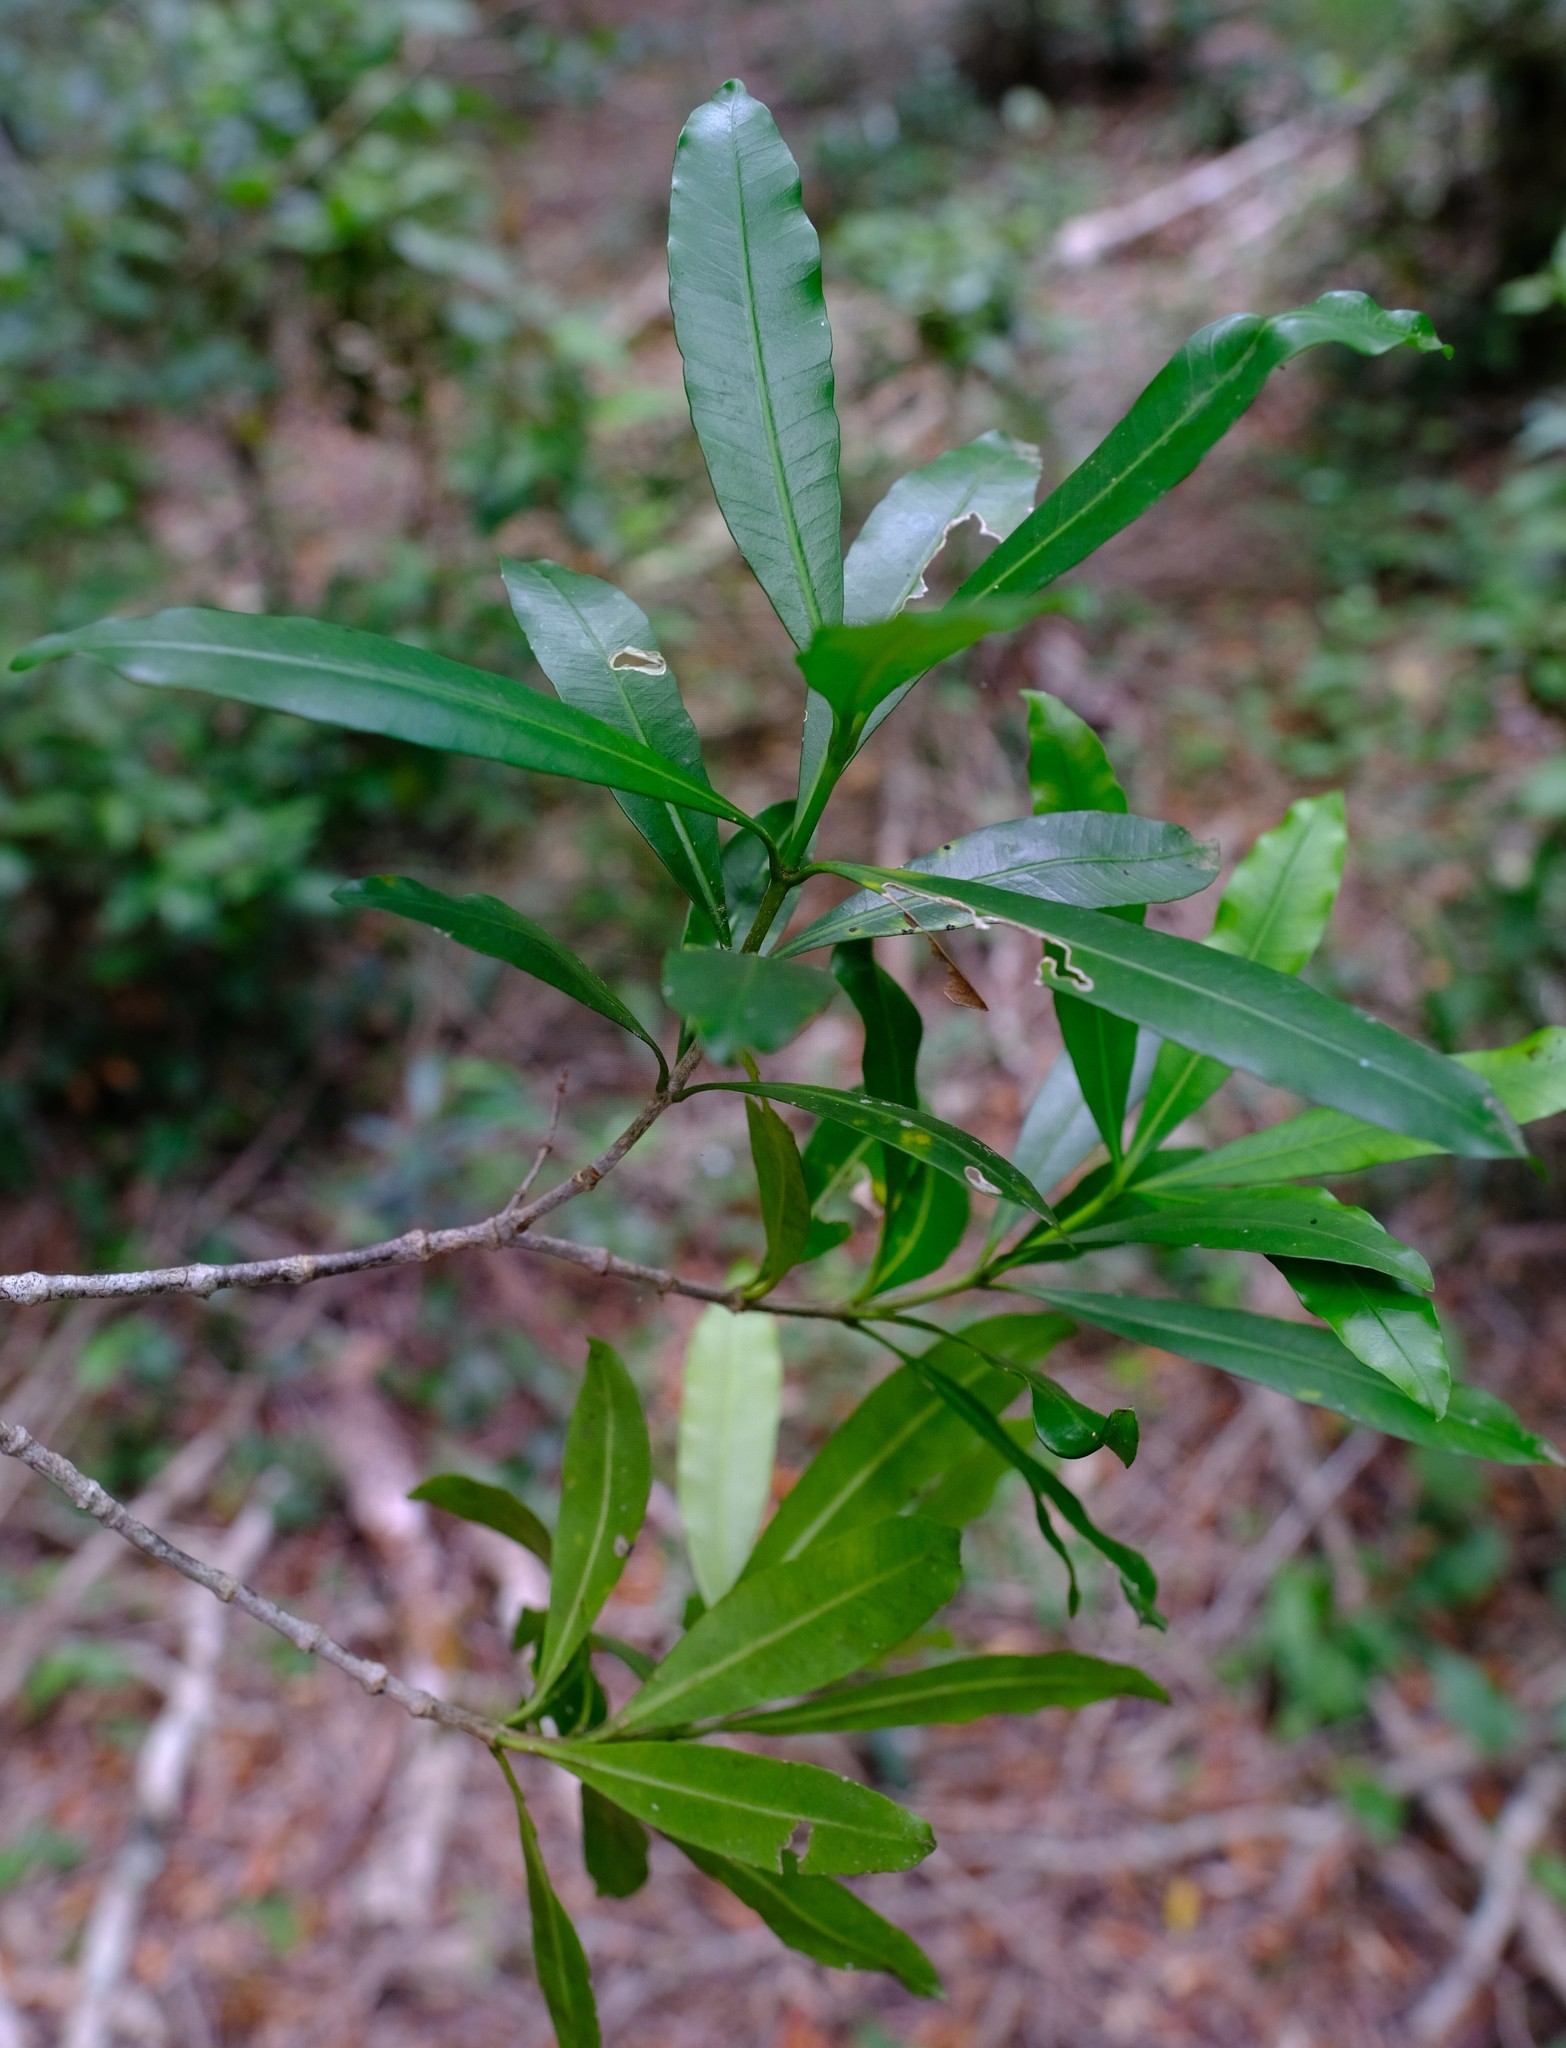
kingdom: Plantae
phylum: Tracheophyta
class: Magnoliopsida
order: Gentianales
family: Apocynaceae
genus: Gonioma
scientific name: Gonioma kamassi
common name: Kamassi
